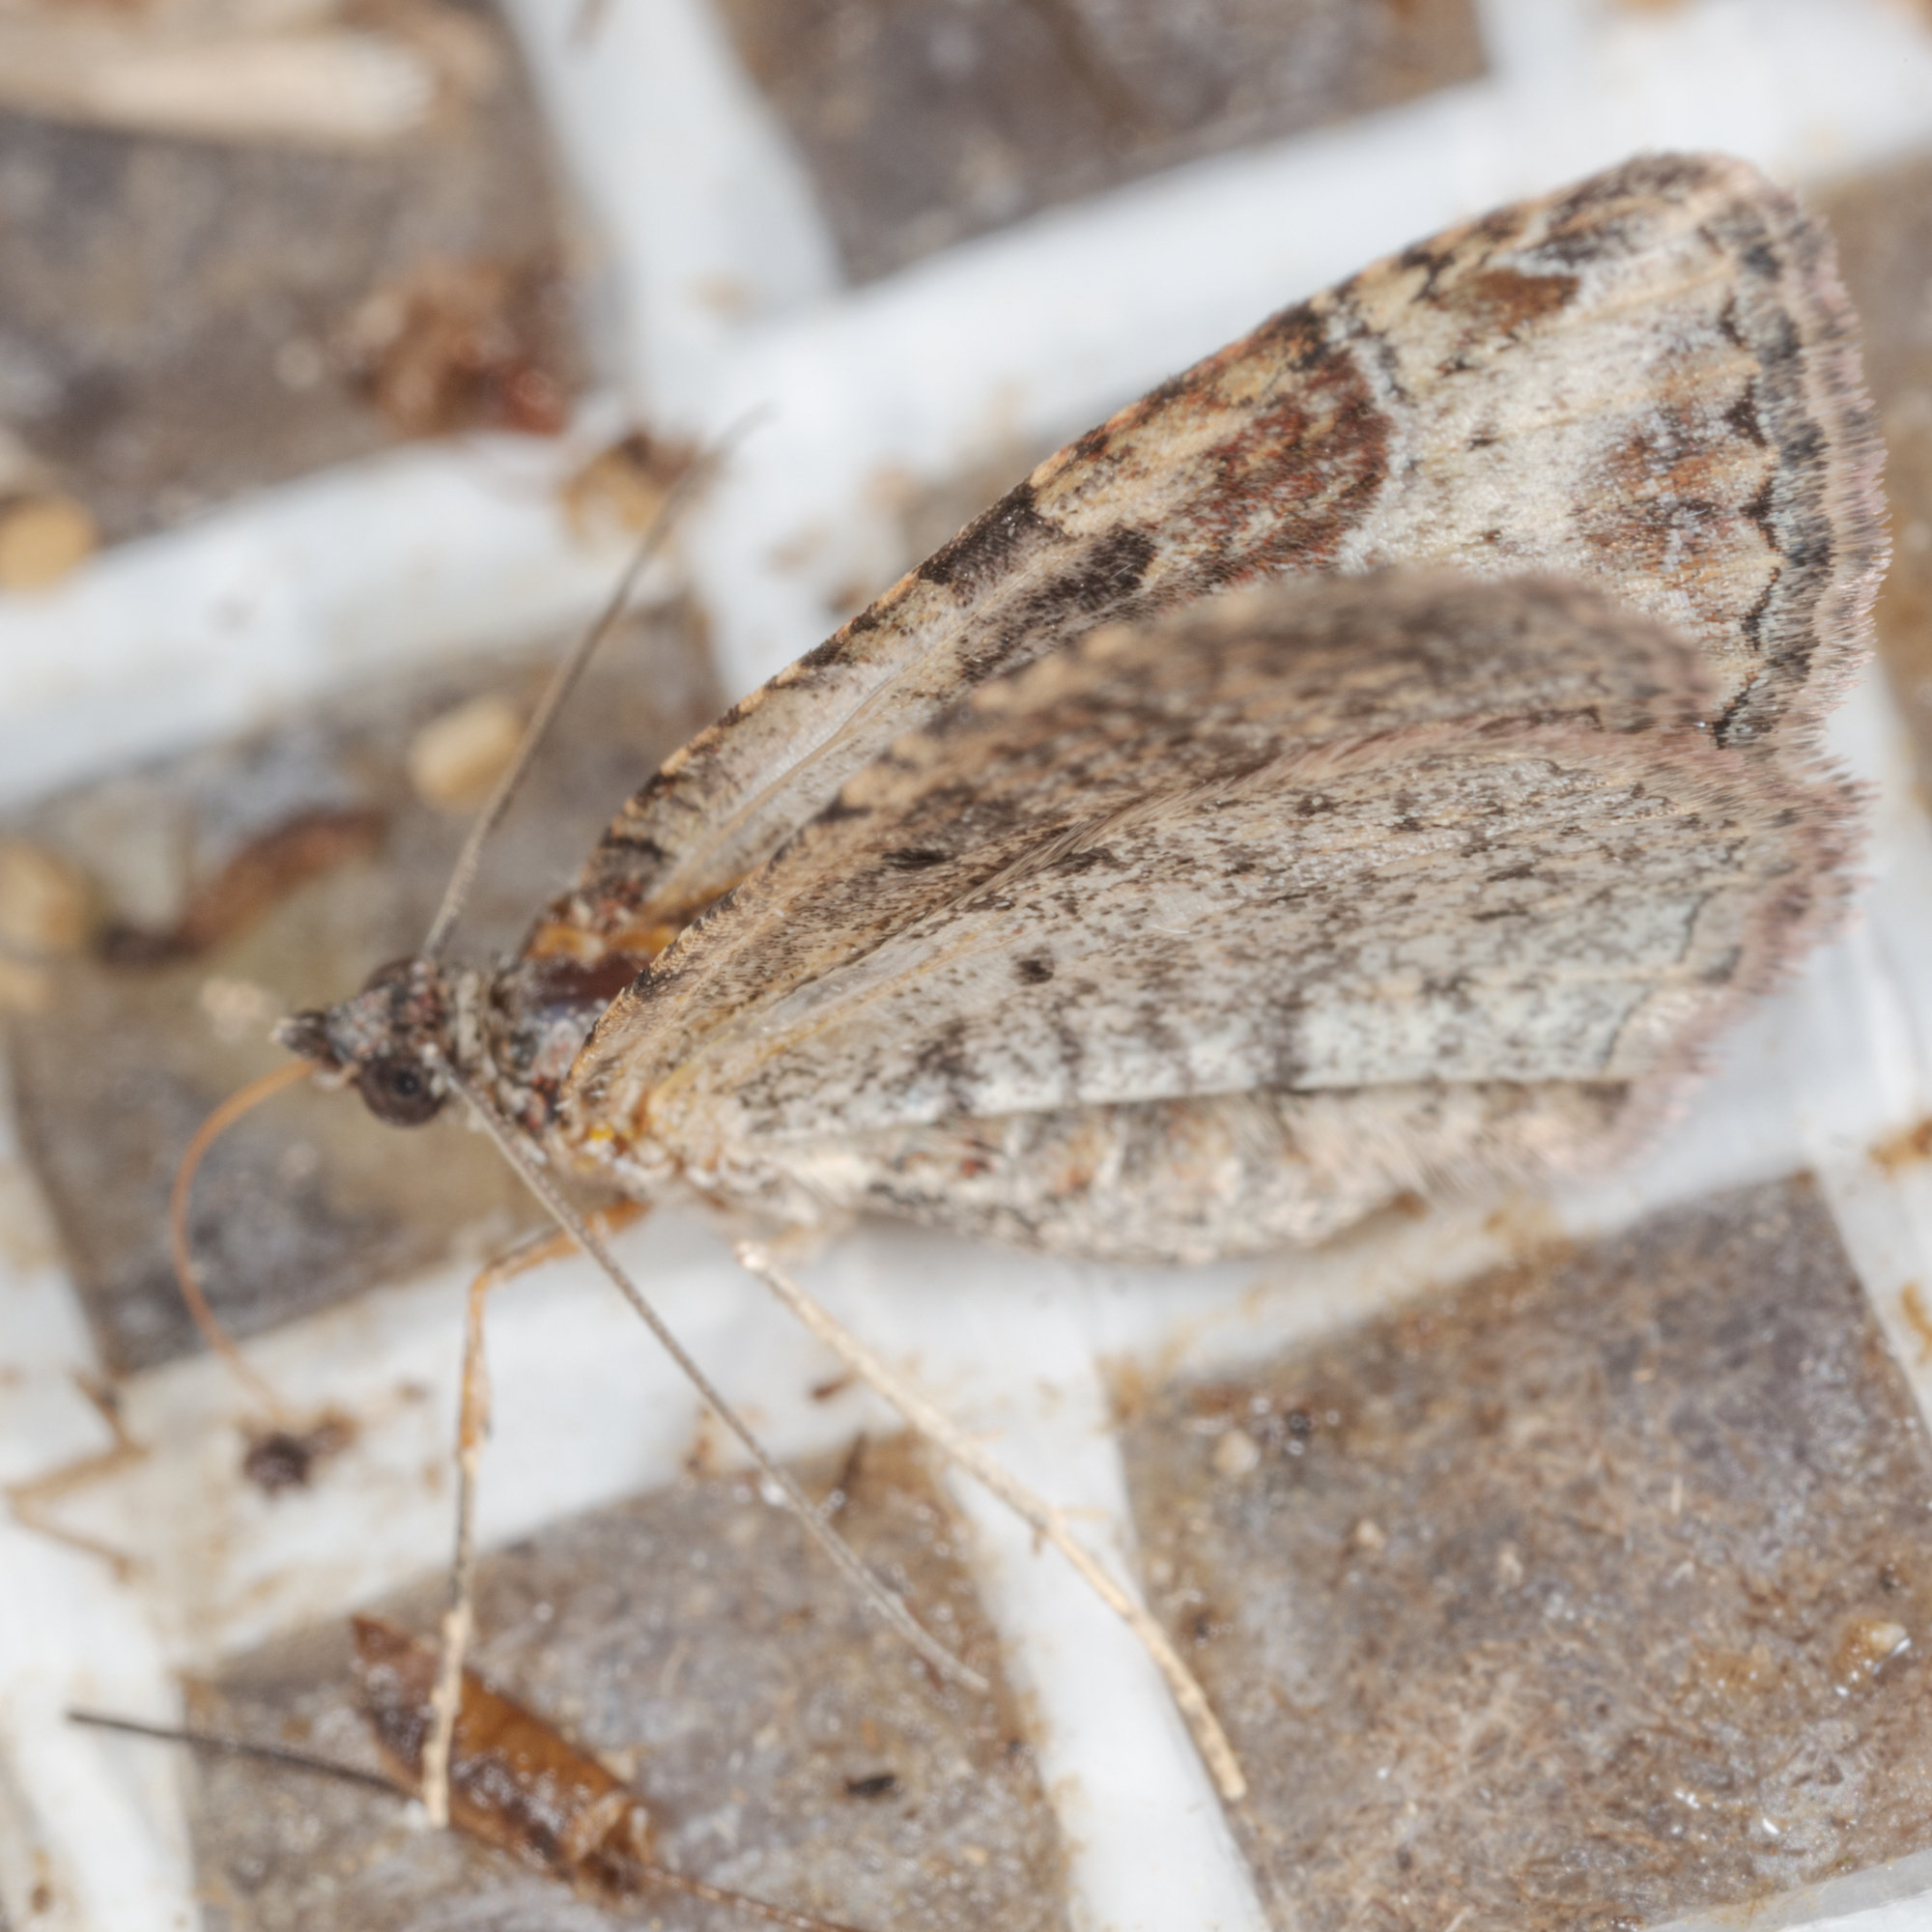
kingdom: Animalia
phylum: Arthropoda
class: Insecta
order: Lepidoptera
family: Geometridae
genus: Costaconvexa
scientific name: Costaconvexa centrostrigaria
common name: Bent-line carpet
